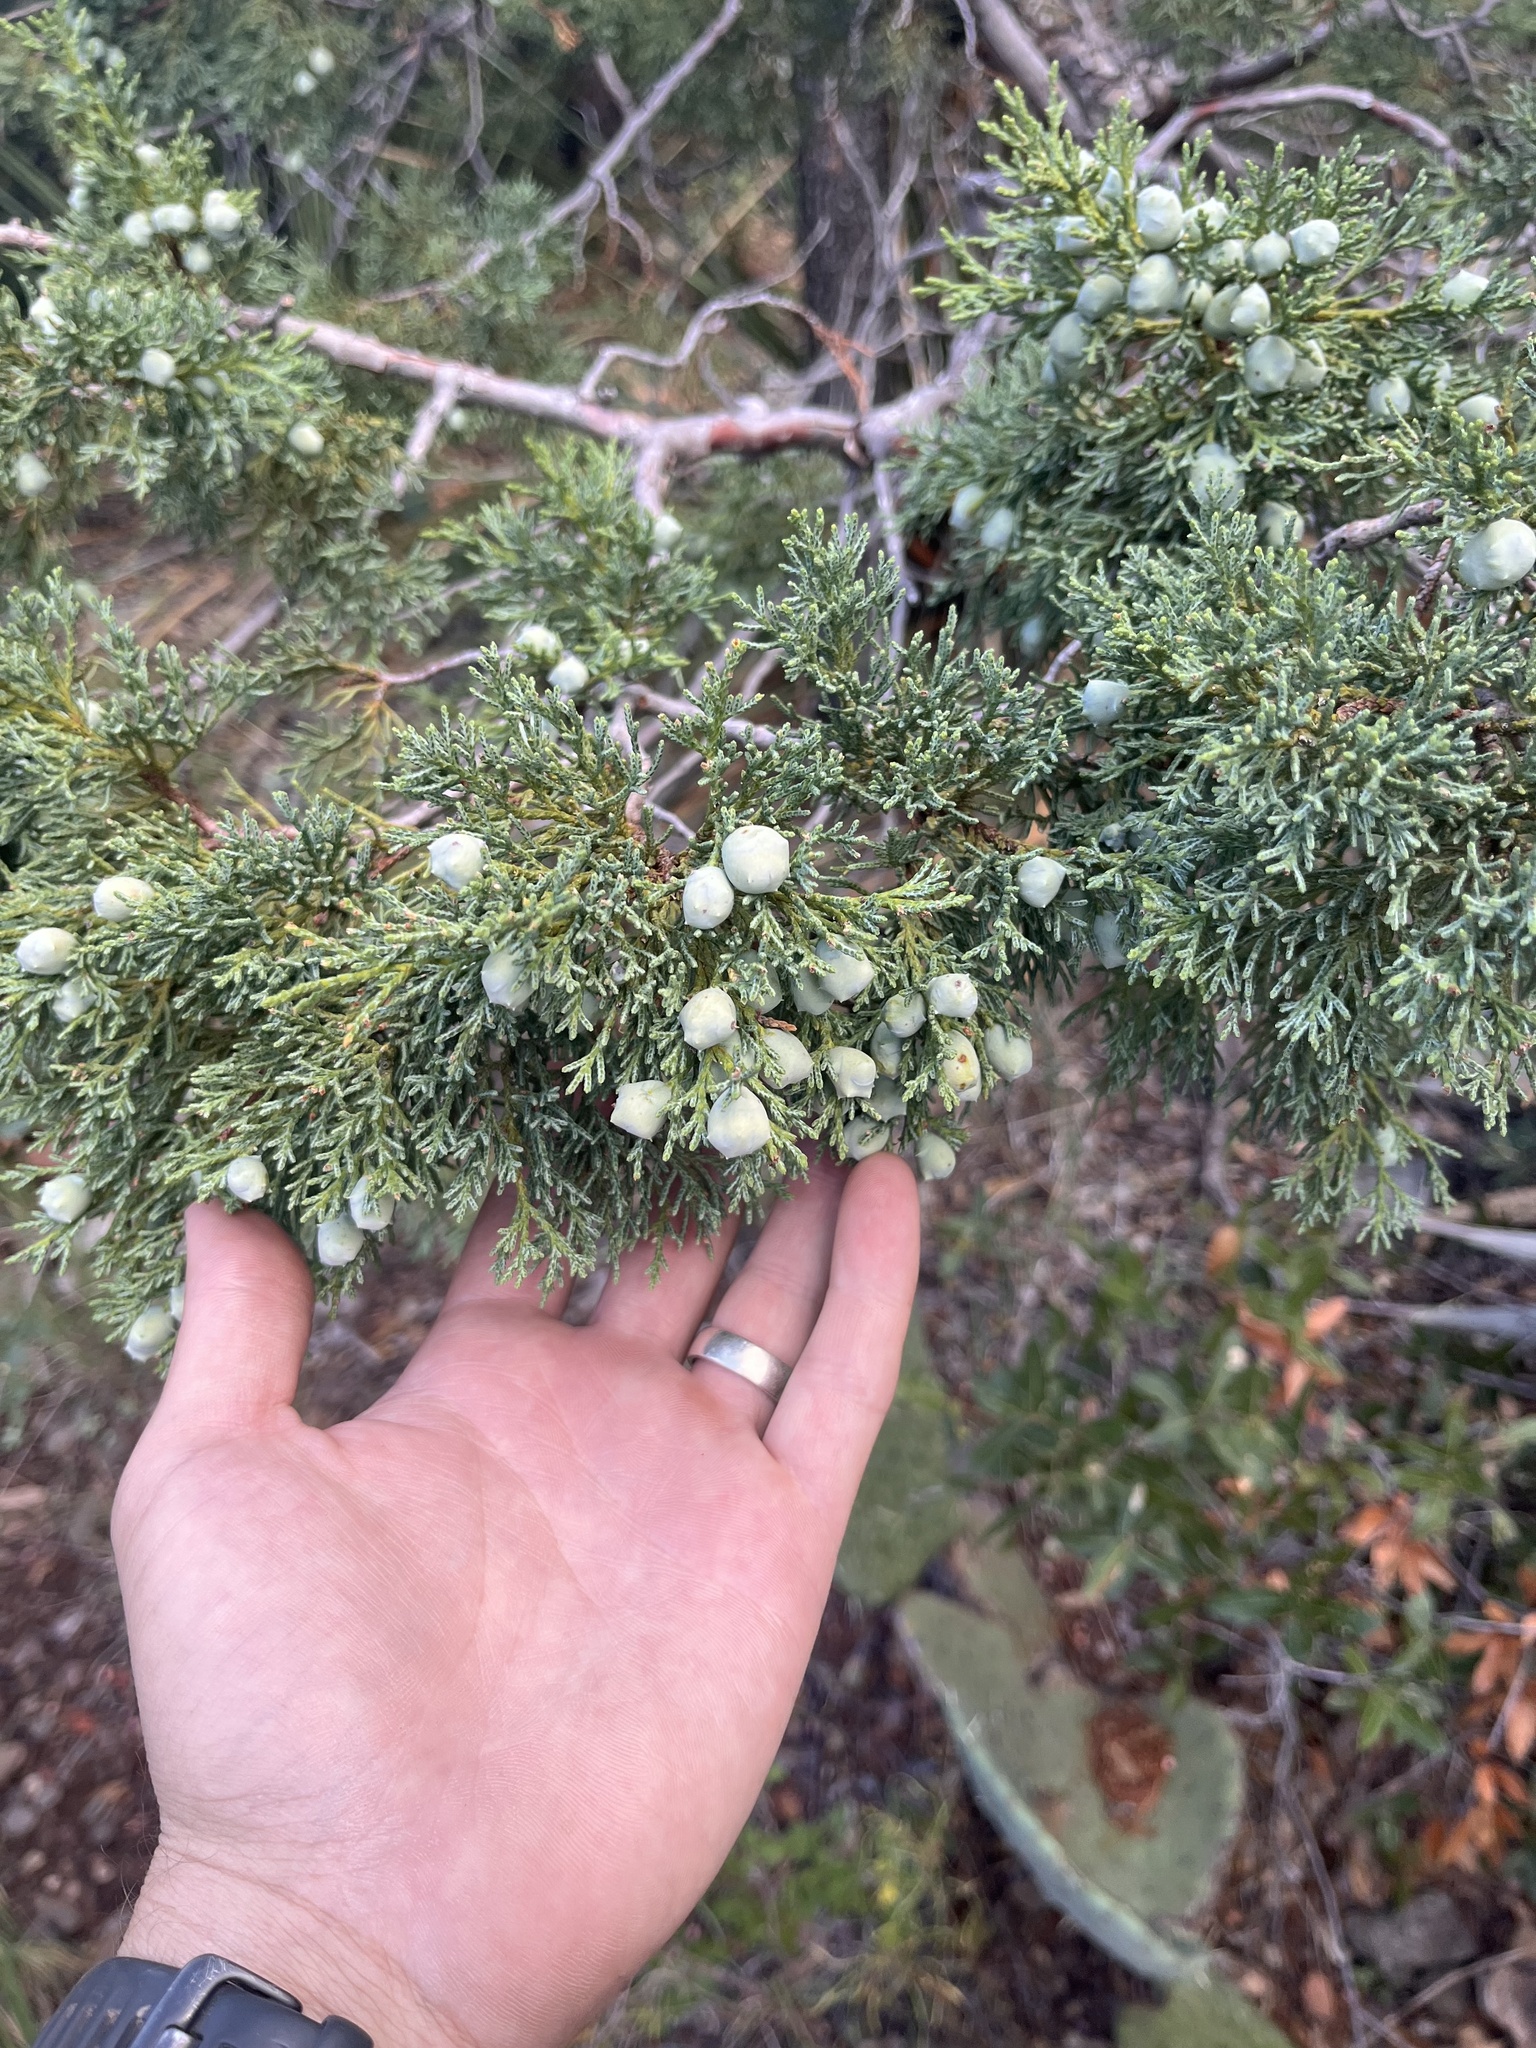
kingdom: Plantae
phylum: Tracheophyta
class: Pinopsida
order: Pinales
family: Cupressaceae
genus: Juniperus
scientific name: Juniperus deppeana
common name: Alligator juniper
